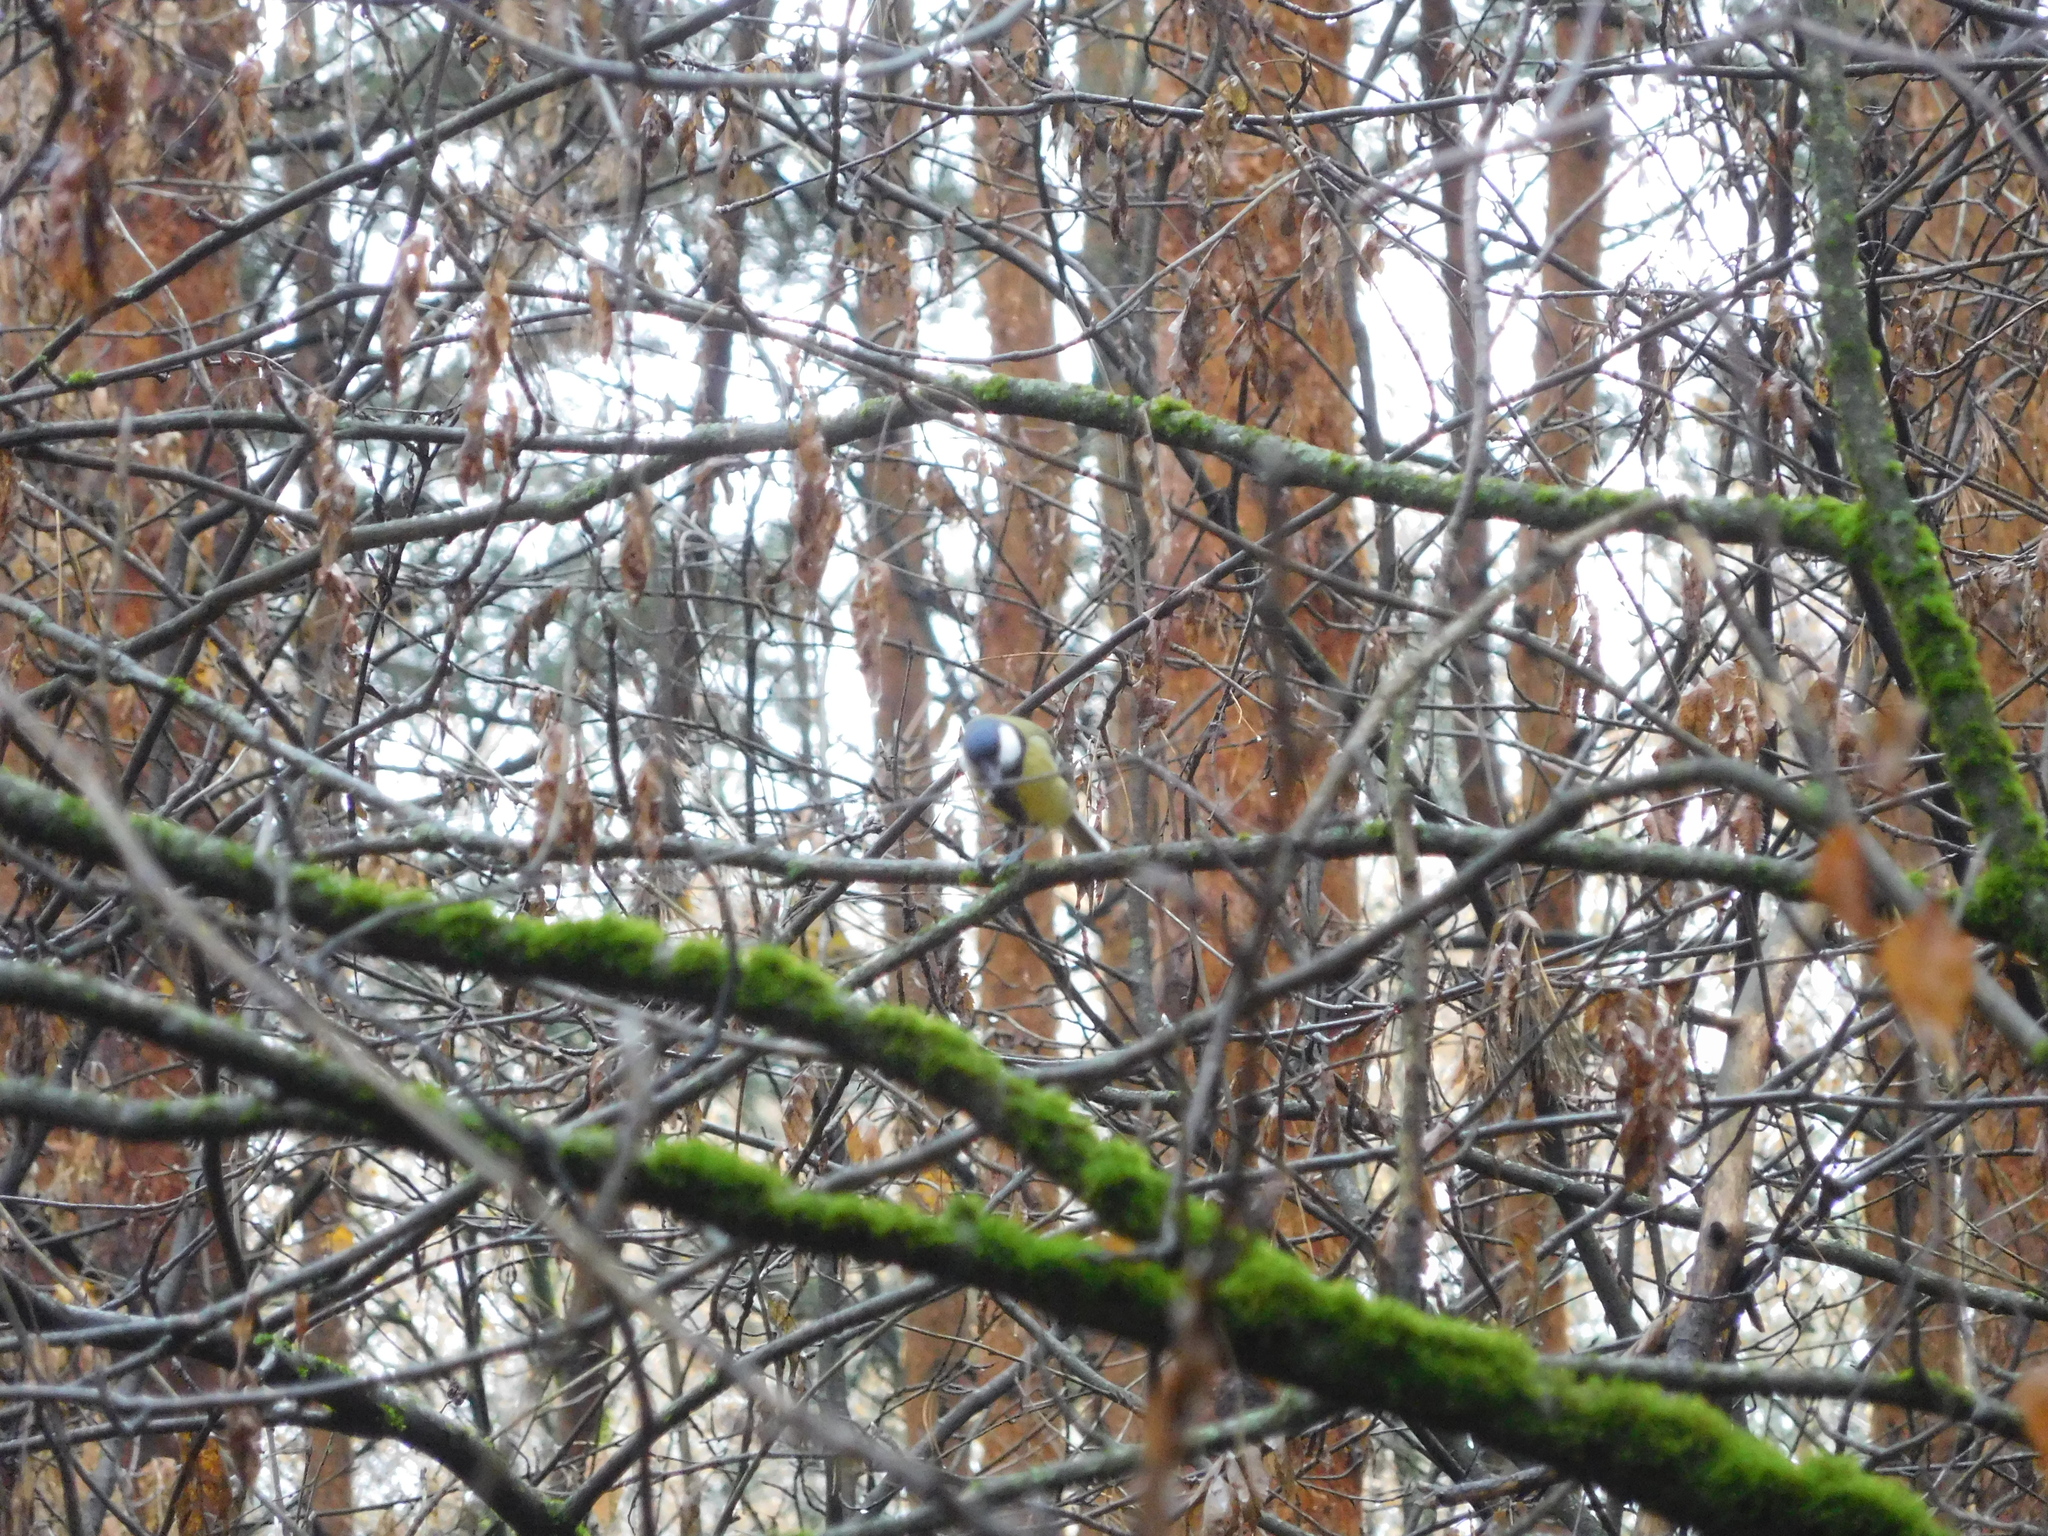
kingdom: Animalia
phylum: Chordata
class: Aves
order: Passeriformes
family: Paridae
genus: Parus
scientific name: Parus major
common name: Great tit
